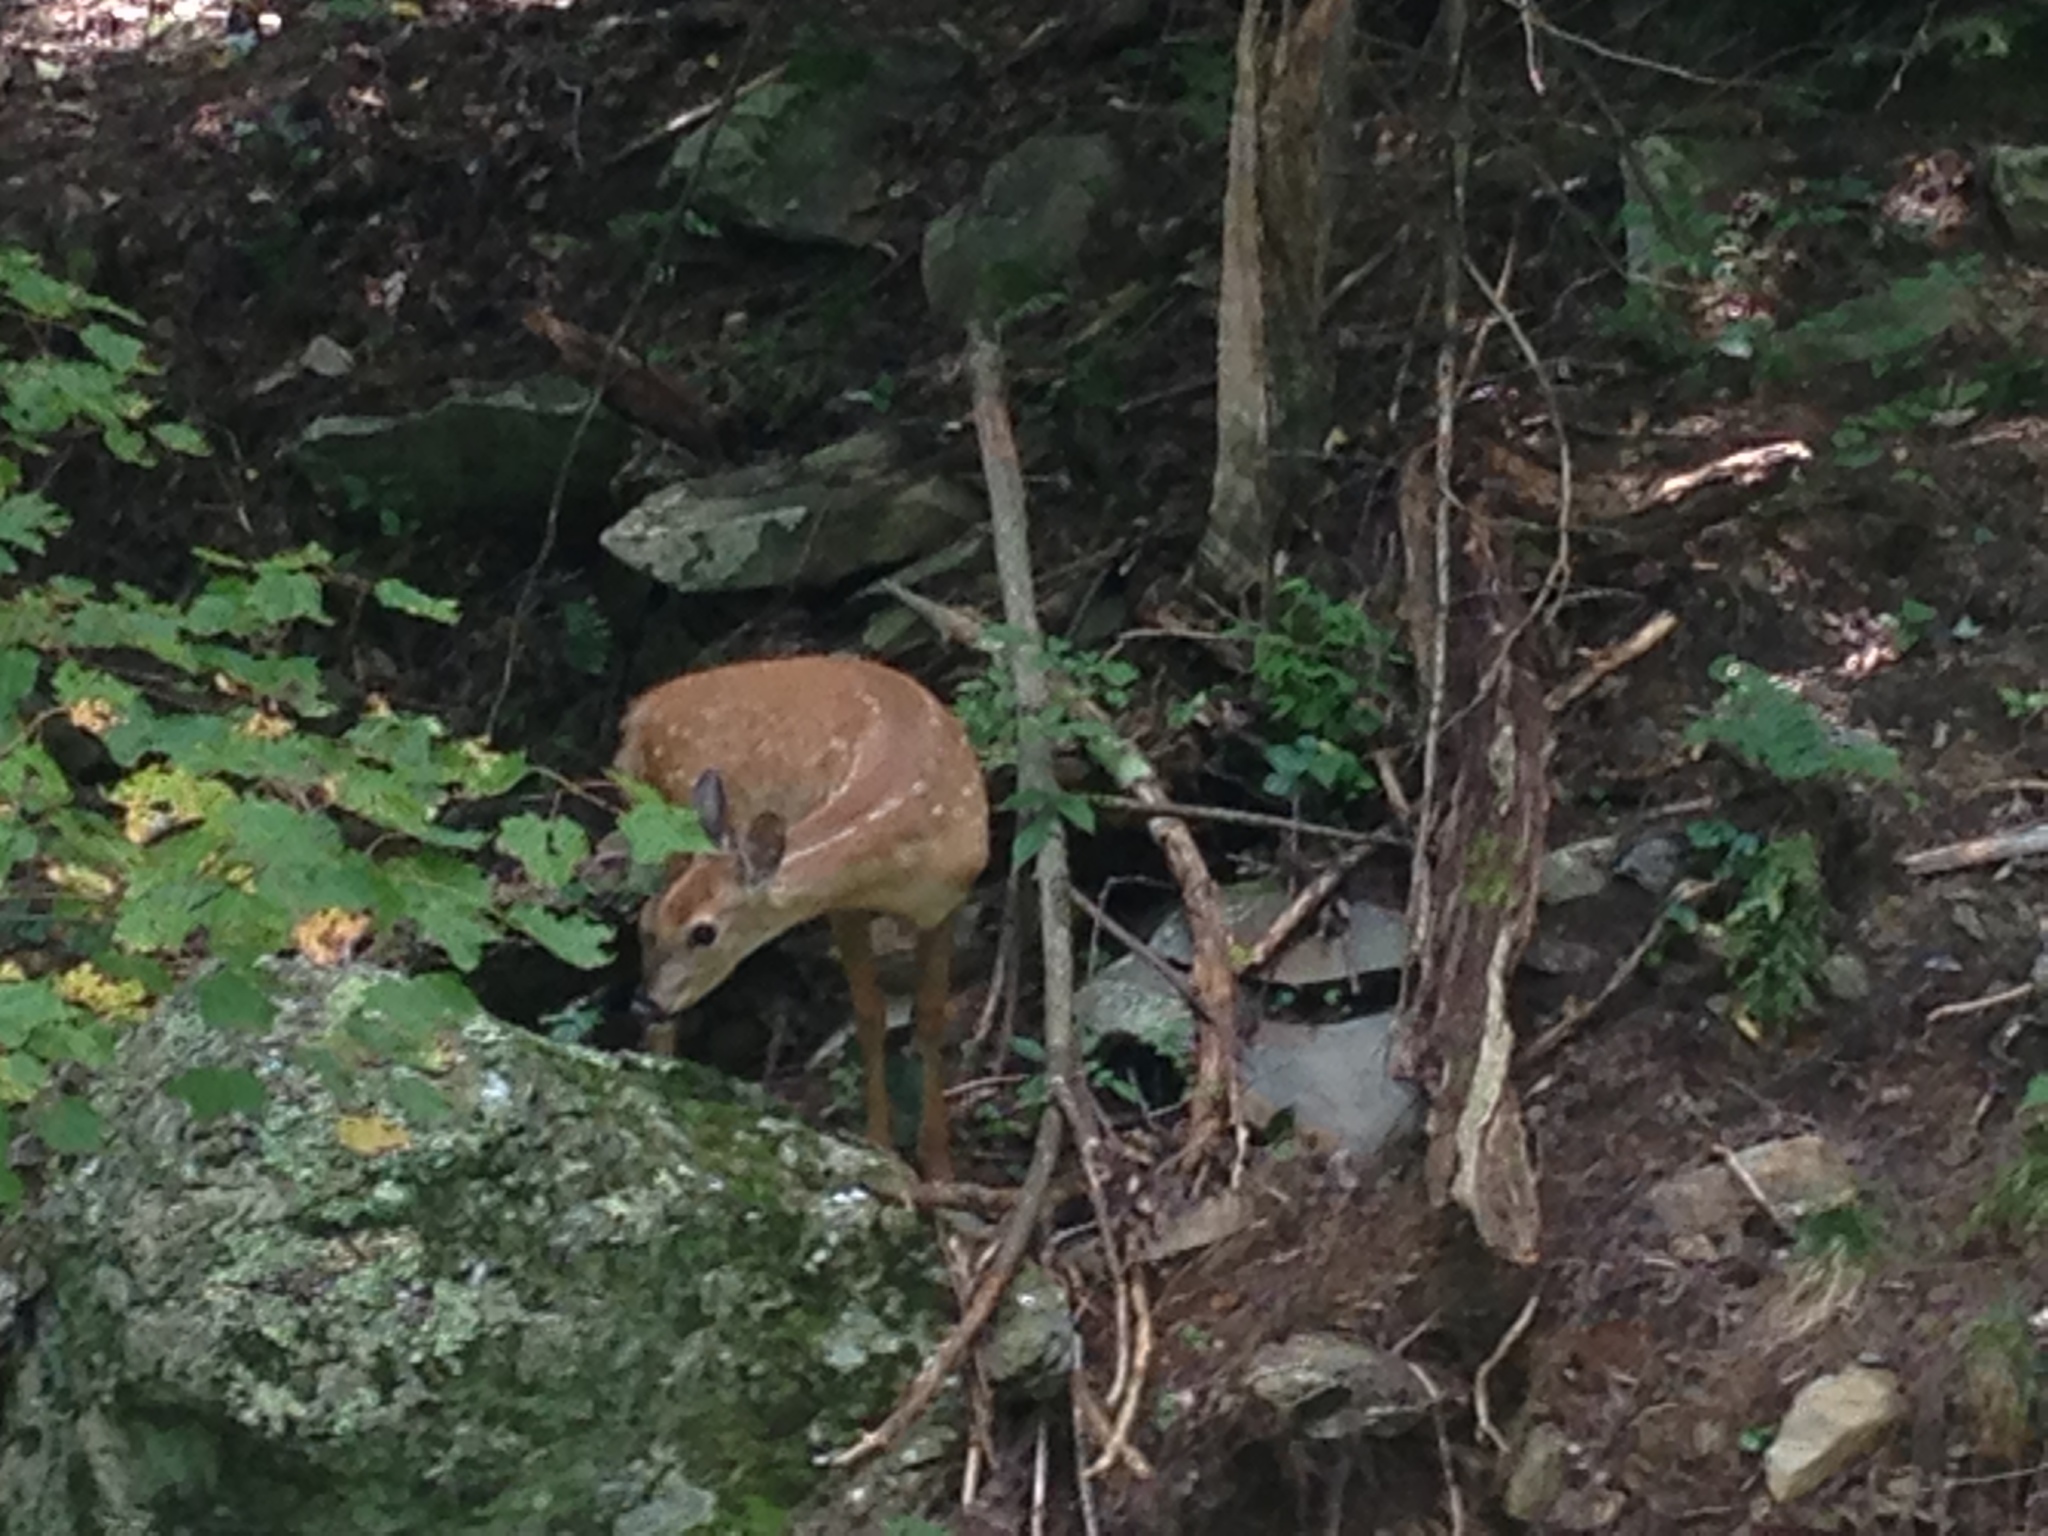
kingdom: Animalia
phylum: Chordata
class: Mammalia
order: Artiodactyla
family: Cervidae
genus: Odocoileus
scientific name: Odocoileus virginianus
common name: White-tailed deer
